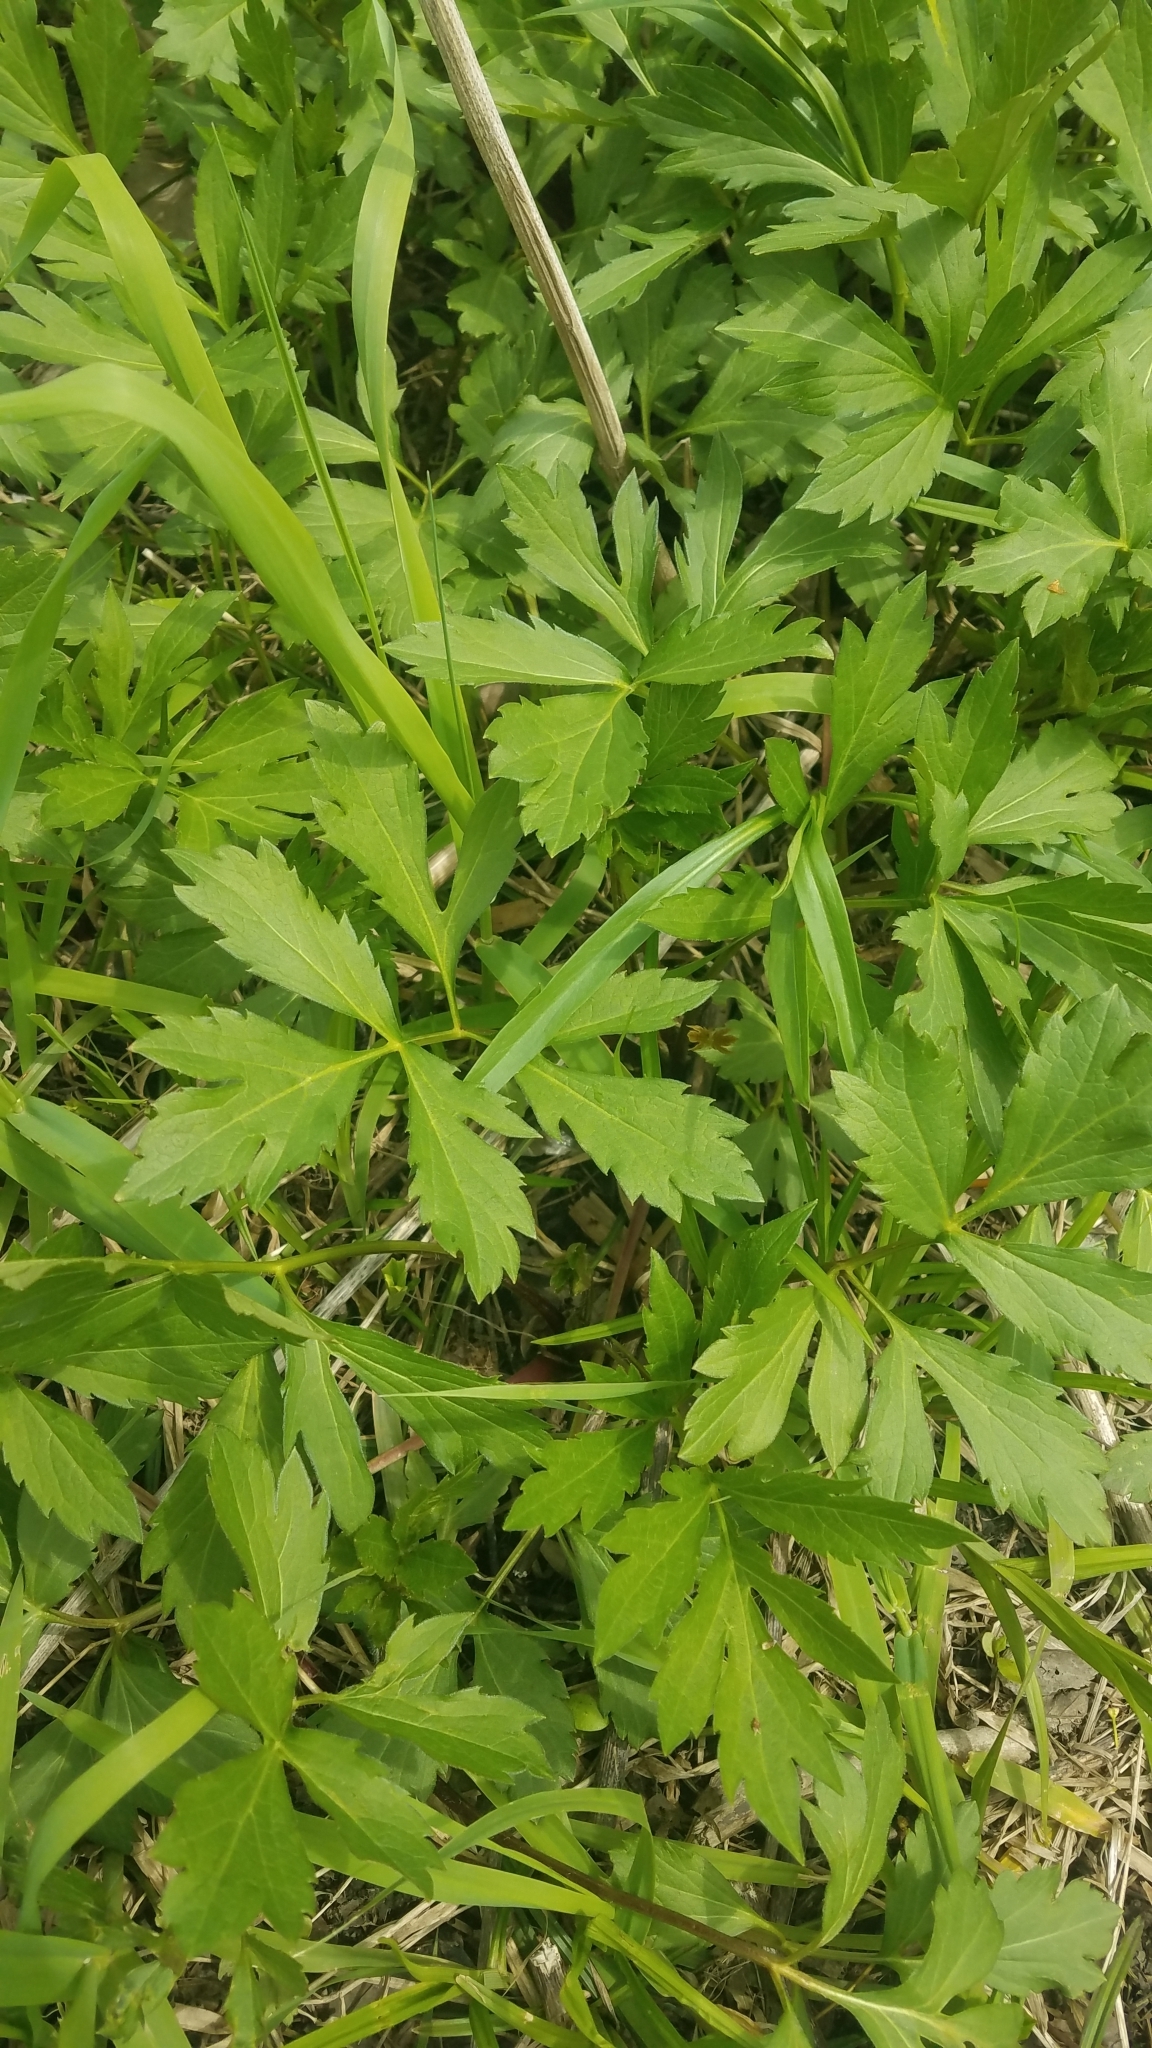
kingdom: Plantae
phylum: Tracheophyta
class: Magnoliopsida
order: Asterales
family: Asteraceae
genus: Rudbeckia
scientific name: Rudbeckia laciniata
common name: Coneflower
